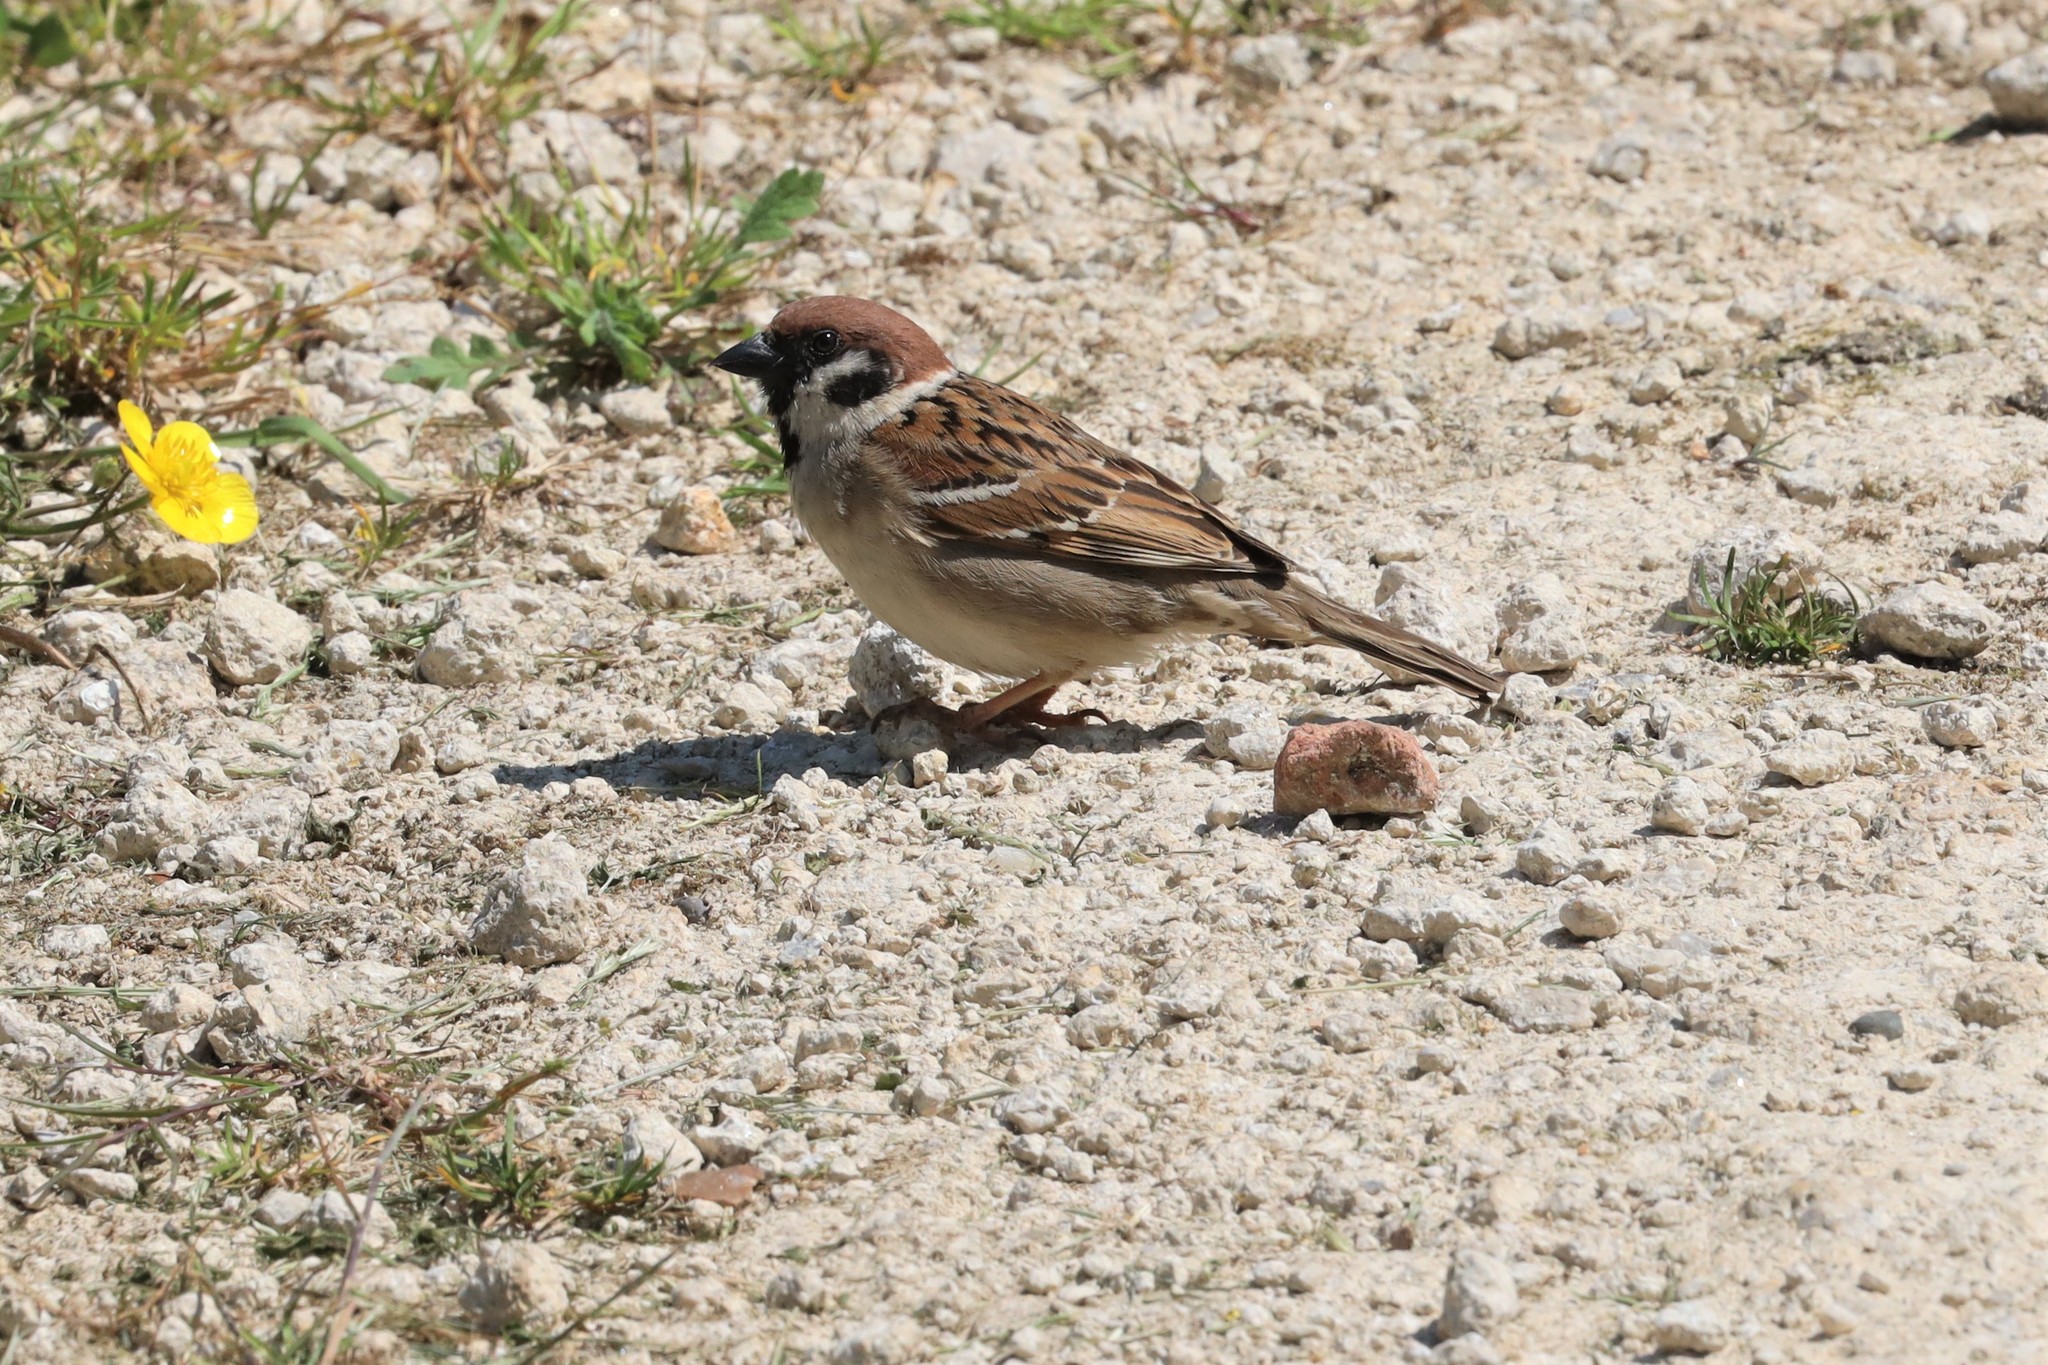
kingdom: Animalia
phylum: Chordata
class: Aves
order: Passeriformes
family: Passeridae
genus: Passer
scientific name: Passer montanus
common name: Eurasian tree sparrow
